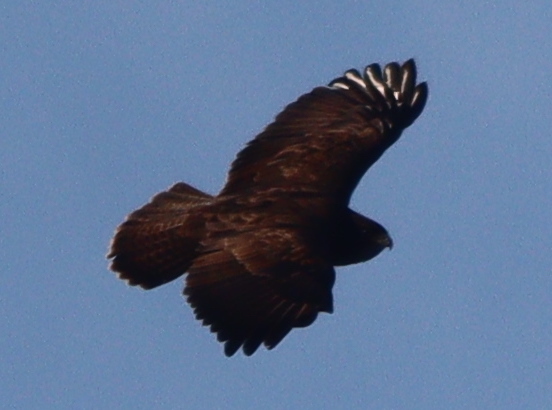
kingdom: Animalia
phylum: Chordata
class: Aves
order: Accipitriformes
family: Accipitridae
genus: Buteo
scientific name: Buteo buteo
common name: Common buzzard
